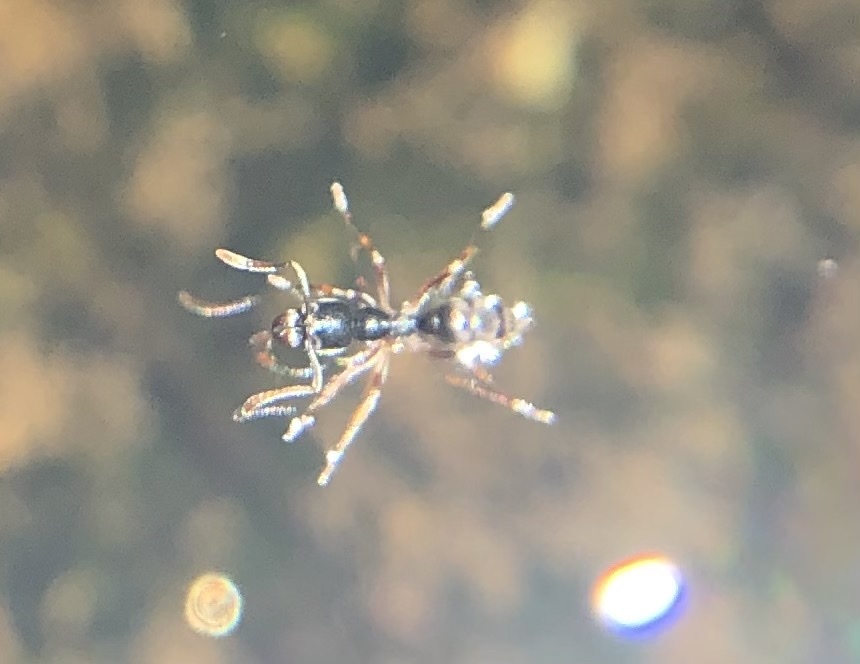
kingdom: Animalia
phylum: Arthropoda
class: Insecta
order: Hymenoptera
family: Formicidae
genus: Pachycondyla
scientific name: Pachycondyla chinensis
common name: Asian needle ant
